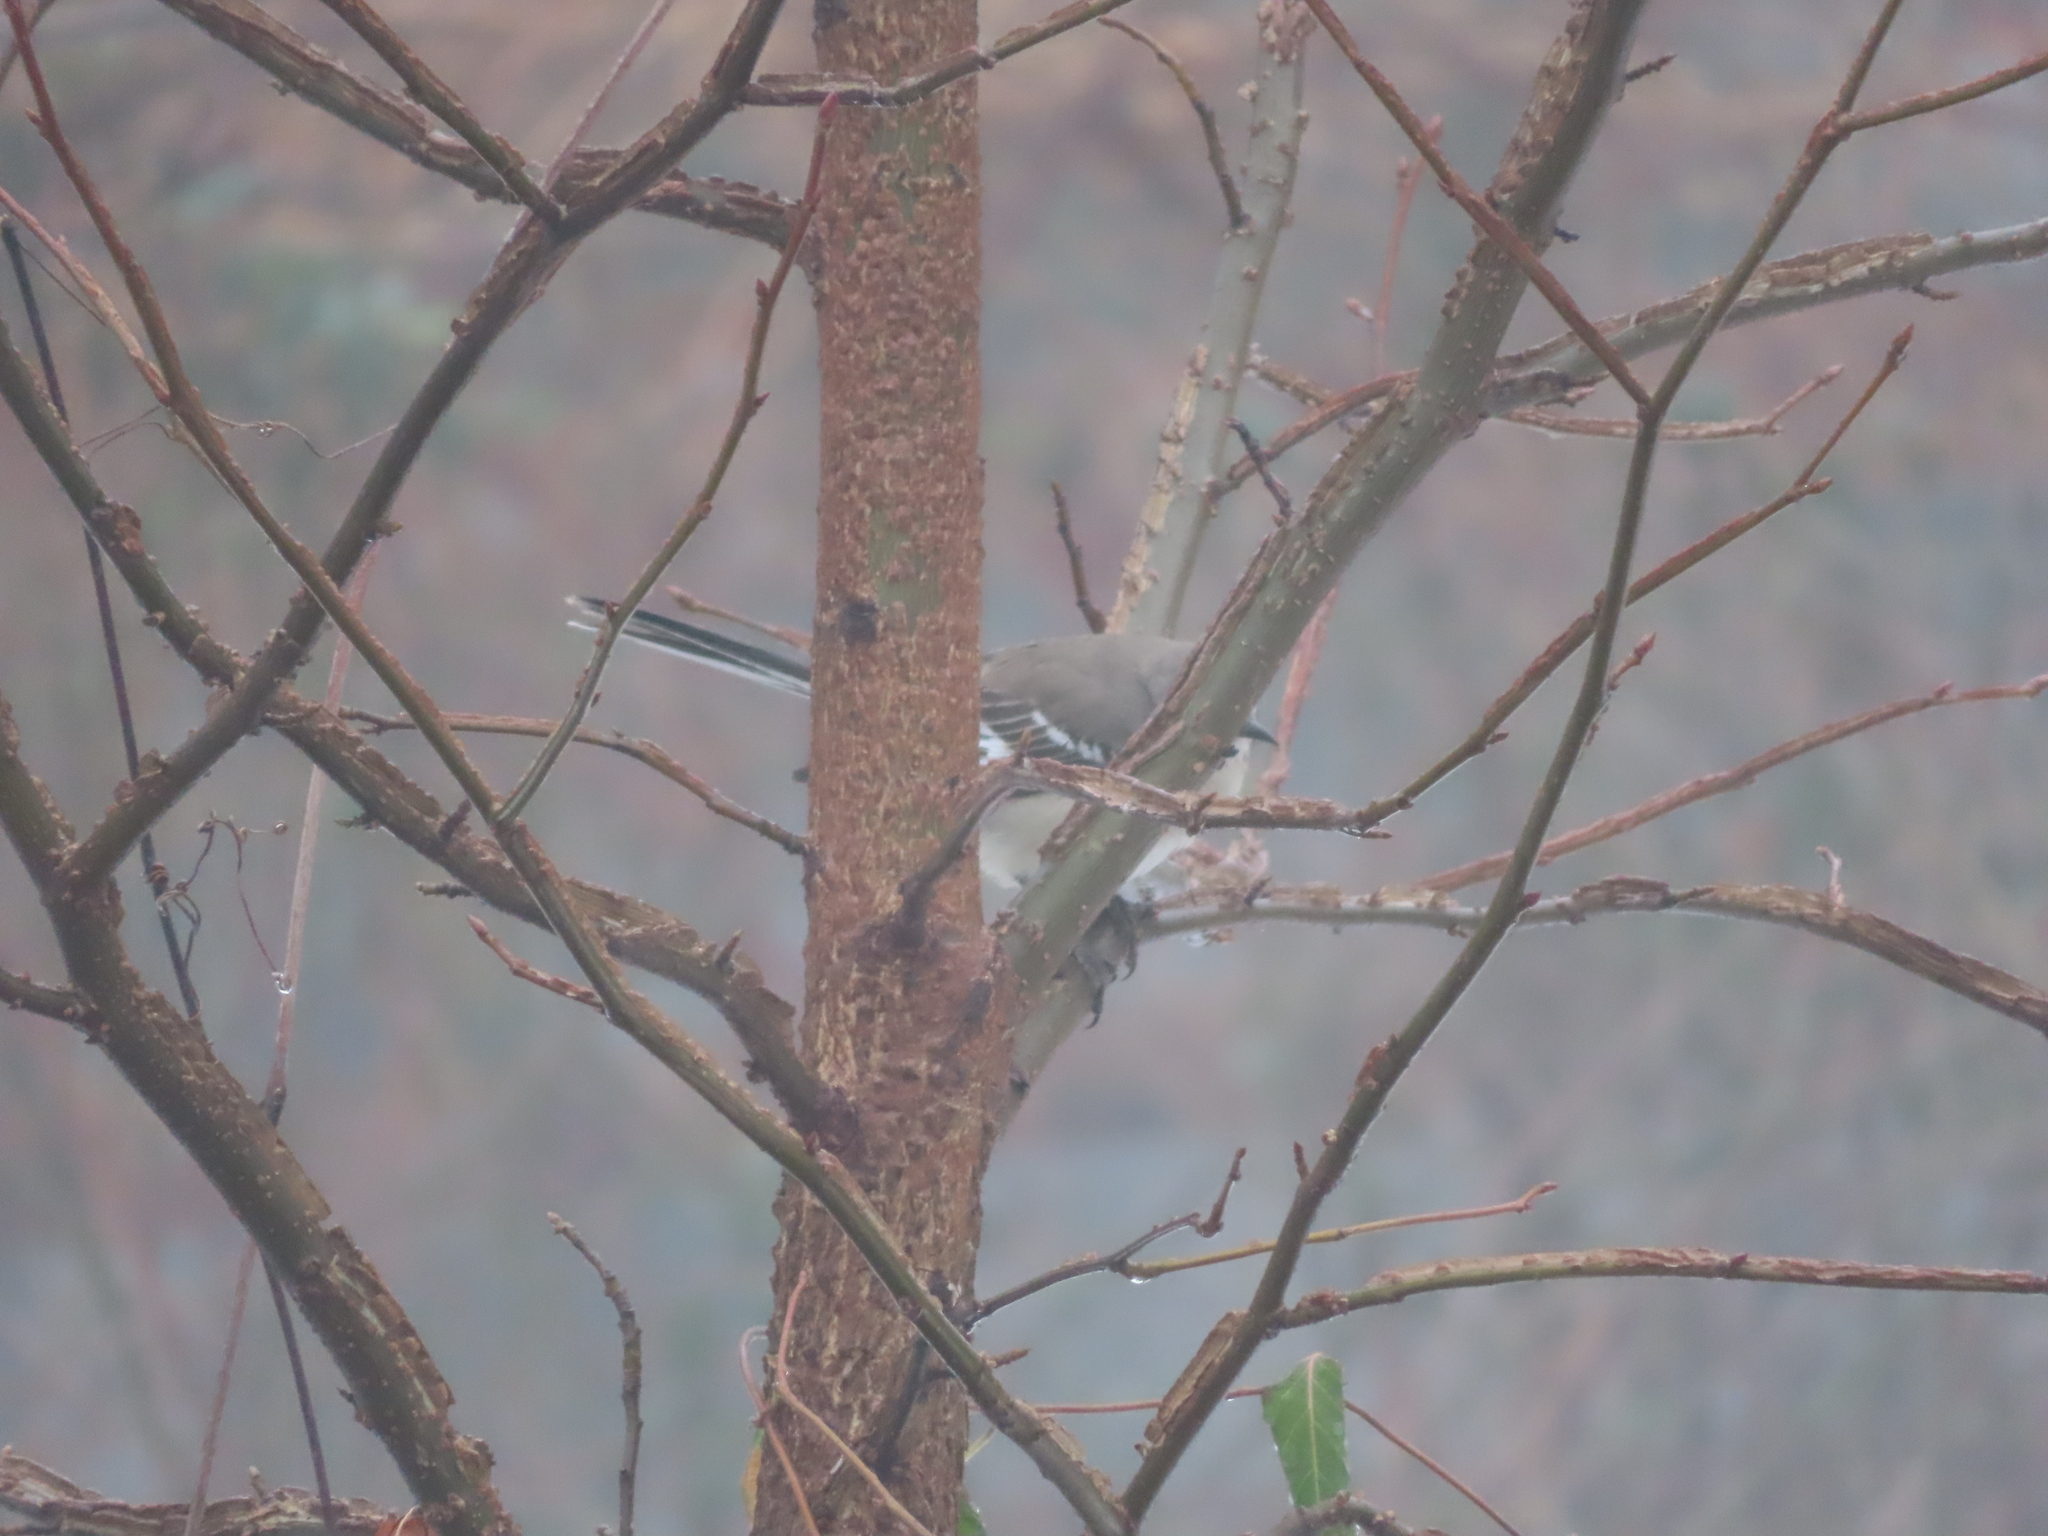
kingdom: Animalia
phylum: Chordata
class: Aves
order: Passeriformes
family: Mimidae
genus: Mimus
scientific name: Mimus polyglottos
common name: Northern mockingbird
